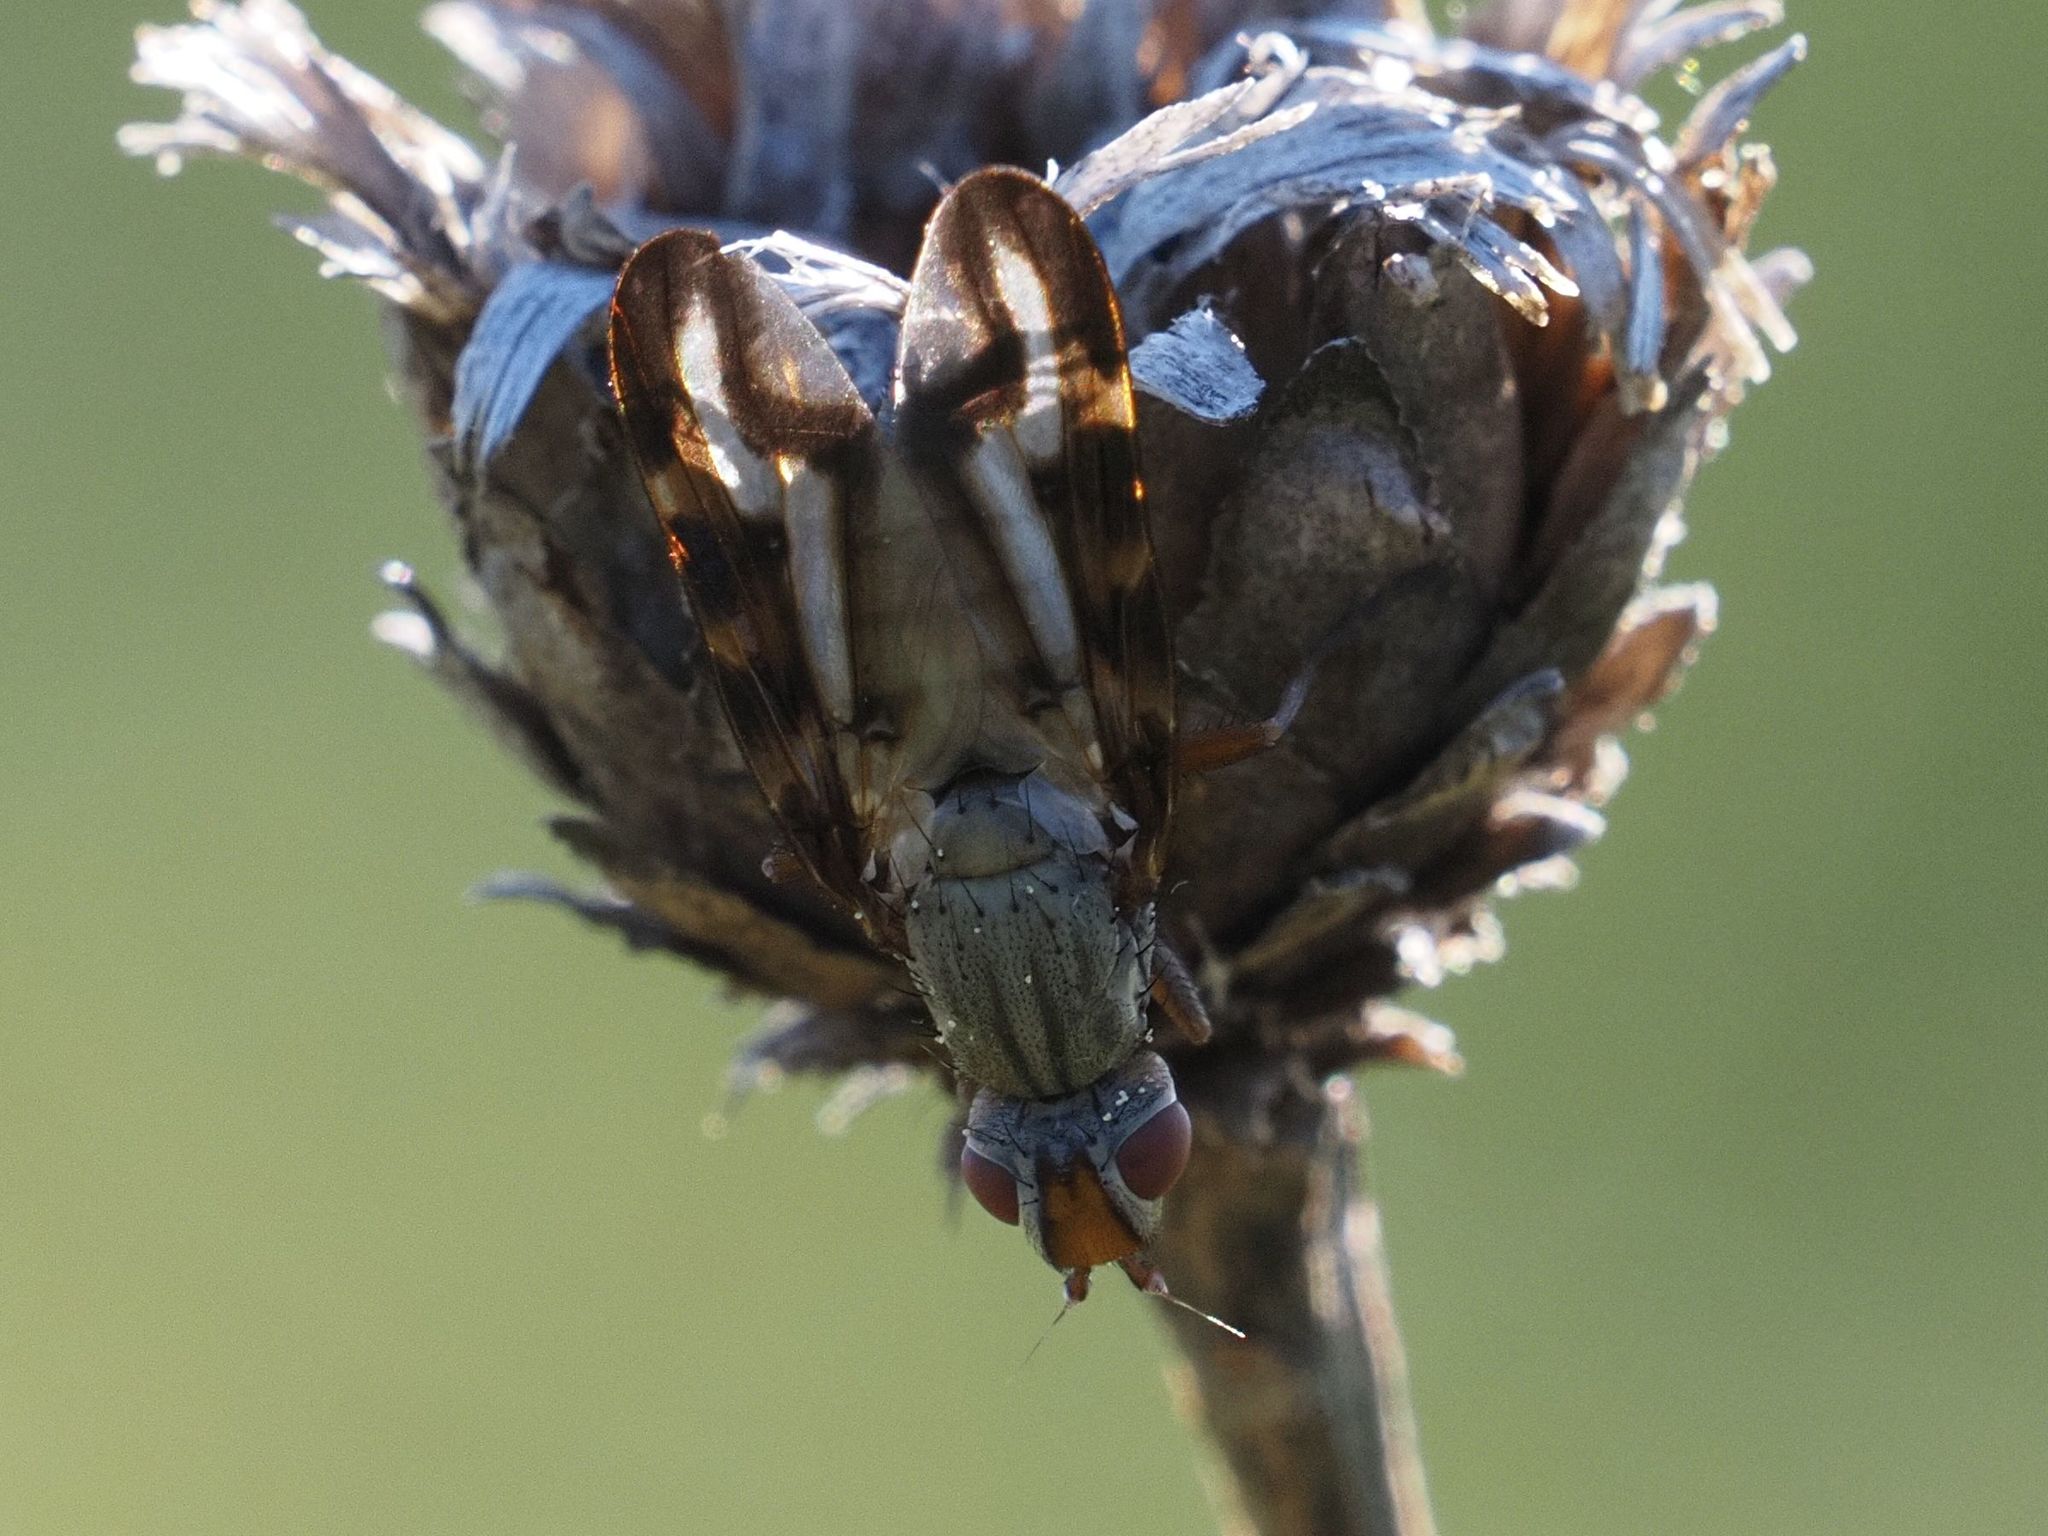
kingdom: Animalia
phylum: Arthropoda
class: Insecta
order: Diptera
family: Ulidiidae
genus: Otites
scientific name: Otites lamed
